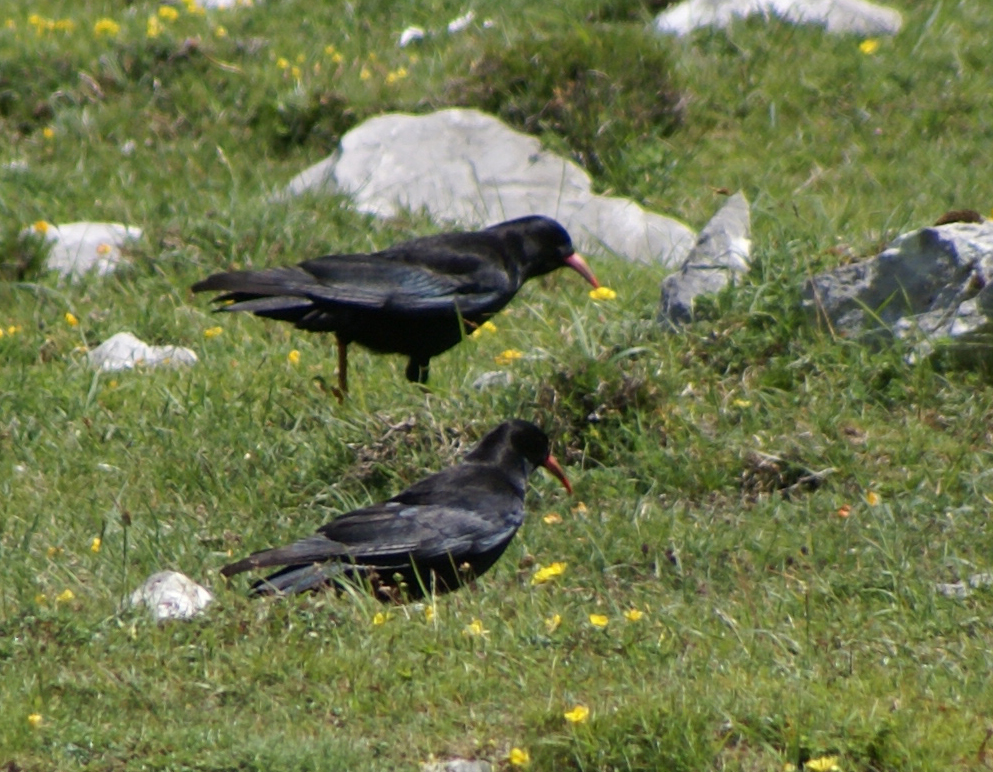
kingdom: Animalia
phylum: Chordata
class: Aves
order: Passeriformes
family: Corvidae
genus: Pyrrhocorax
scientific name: Pyrrhocorax pyrrhocorax
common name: Red-billed chough
